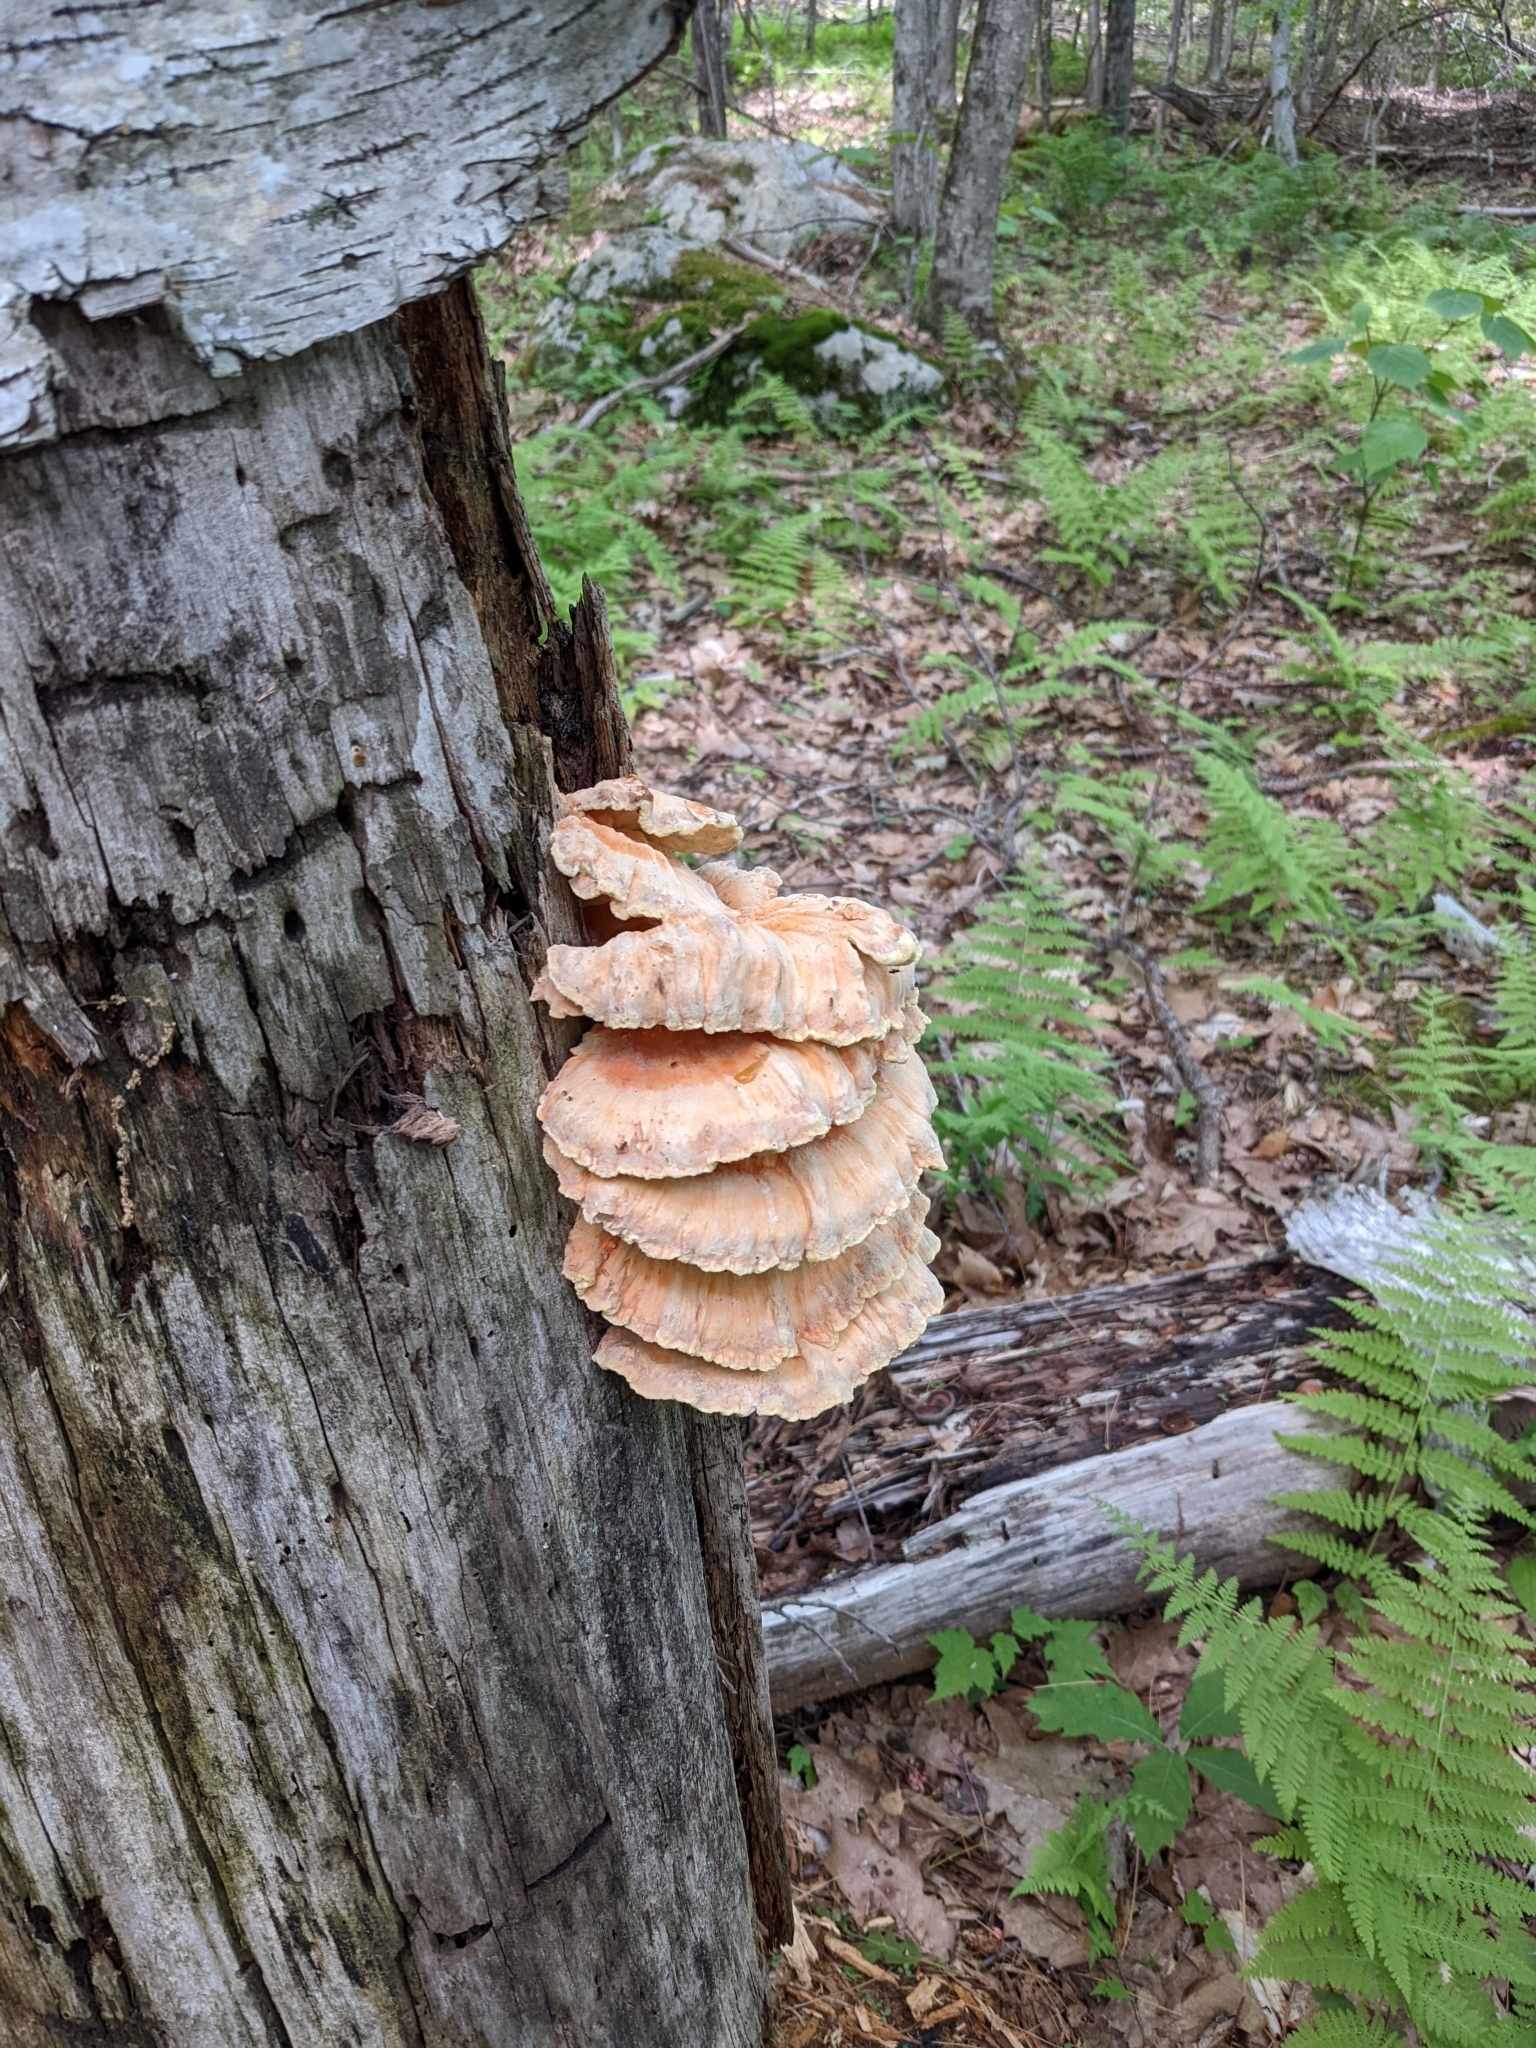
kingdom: Fungi
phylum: Basidiomycota
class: Agaricomycetes
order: Polyporales
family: Laetiporaceae
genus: Laetiporus
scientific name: Laetiporus sulphureus
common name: Chicken of the woods
